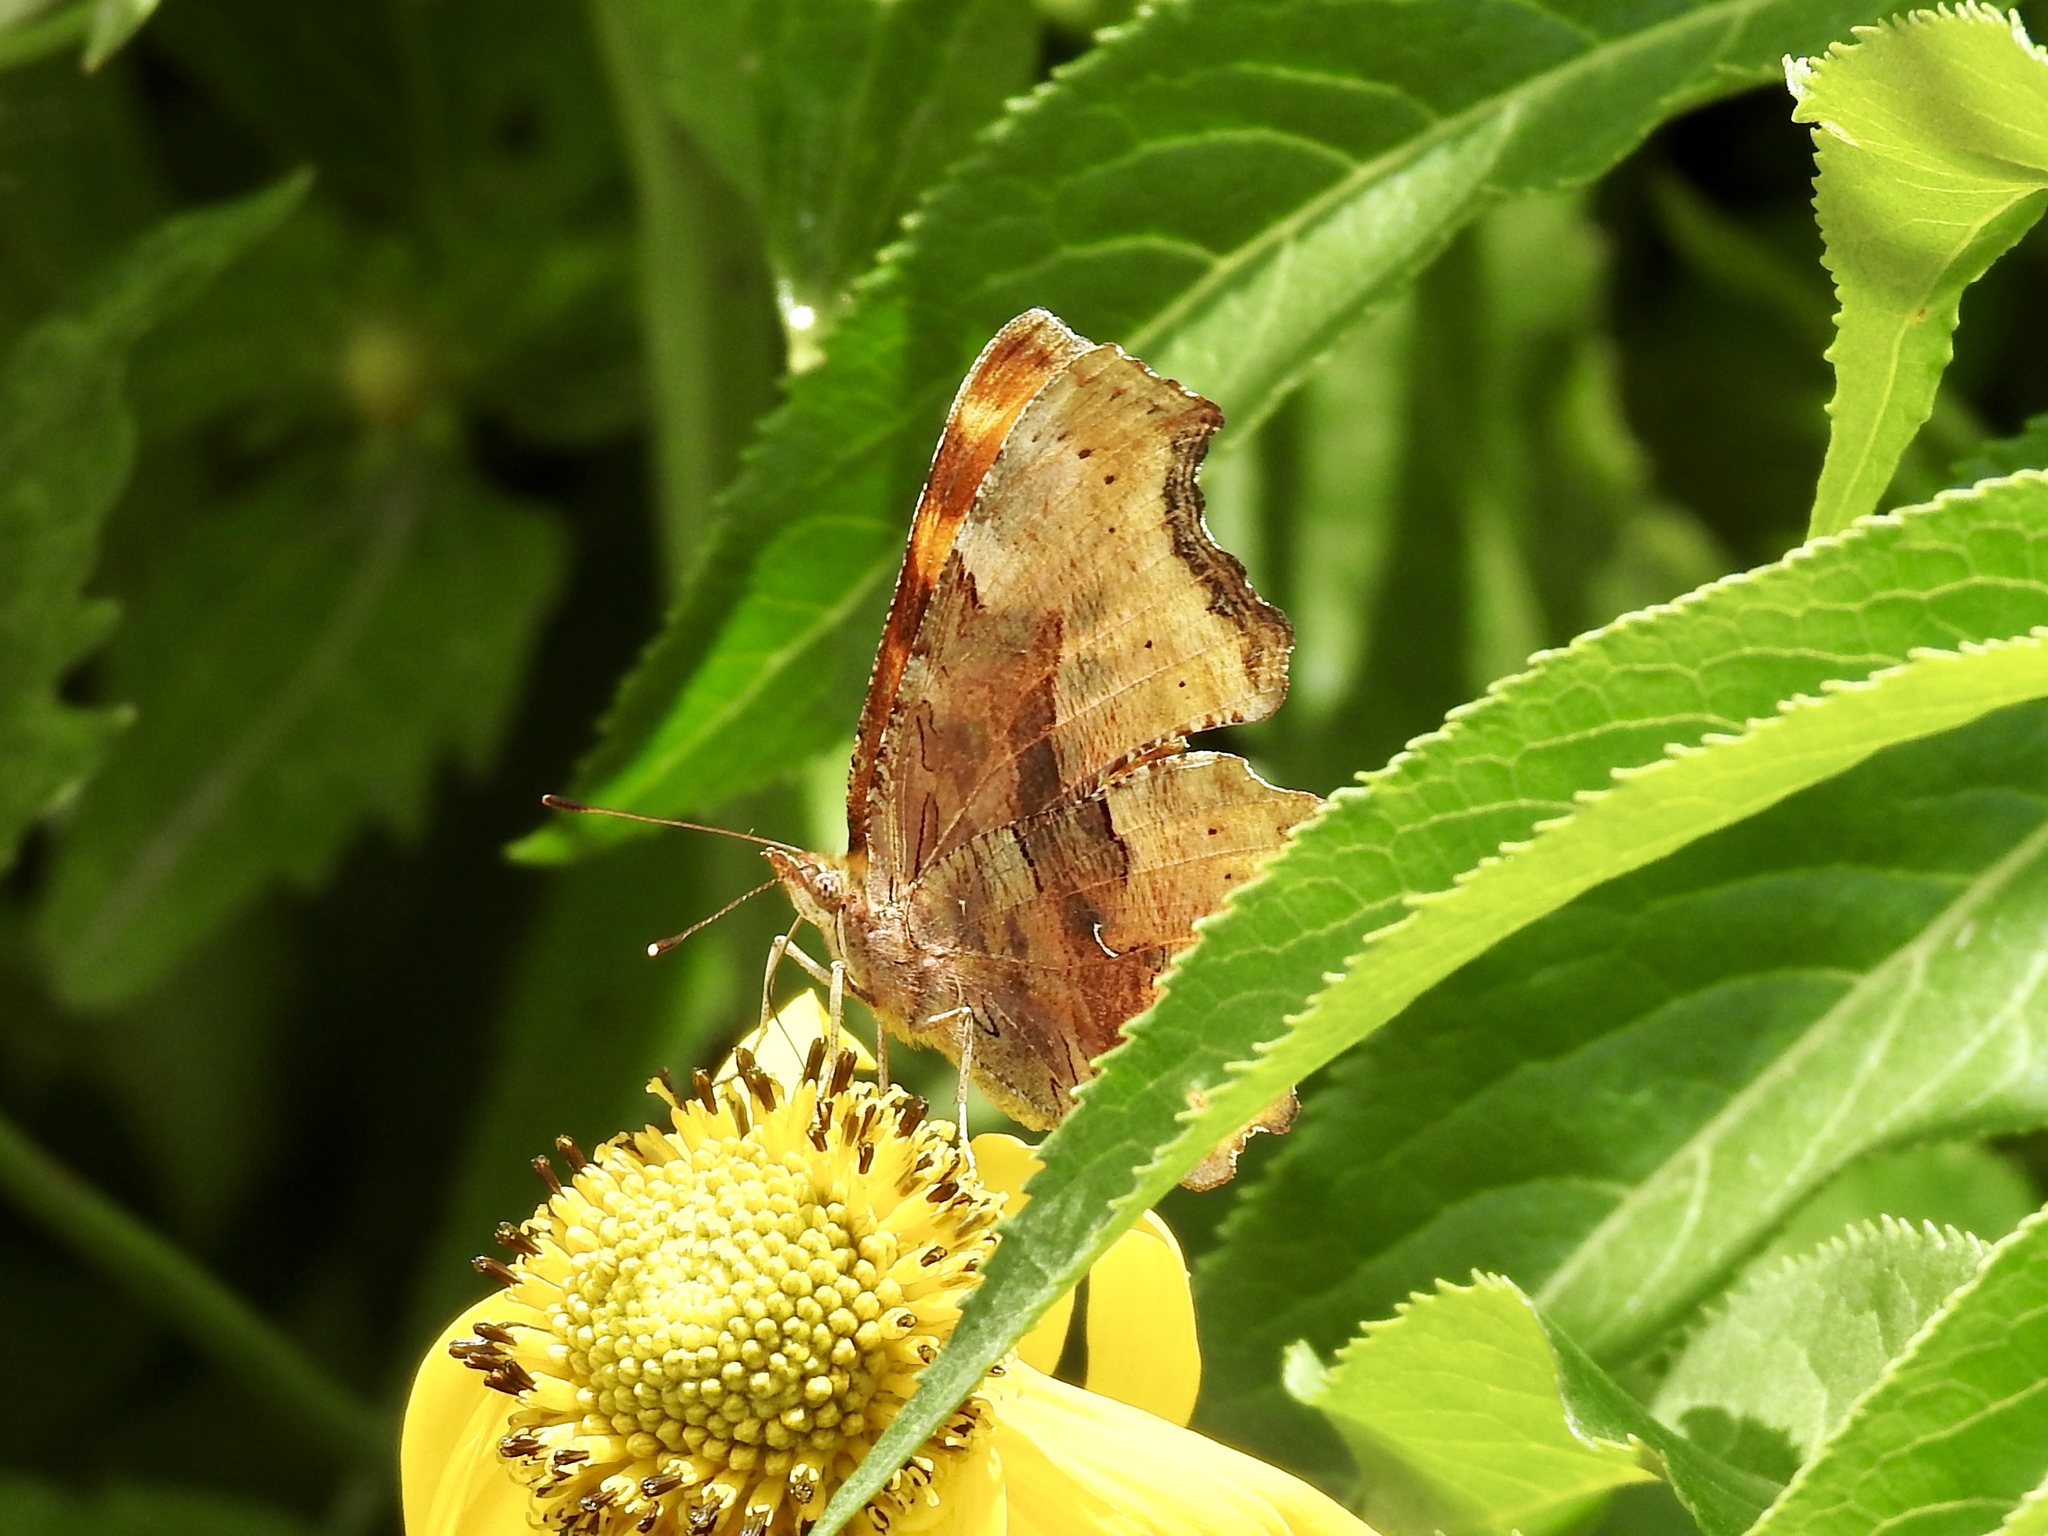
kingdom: Animalia
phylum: Arthropoda
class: Insecta
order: Lepidoptera
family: Nymphalidae
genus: Polygonia
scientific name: Polygonia satyrus
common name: Satyr angle wing
